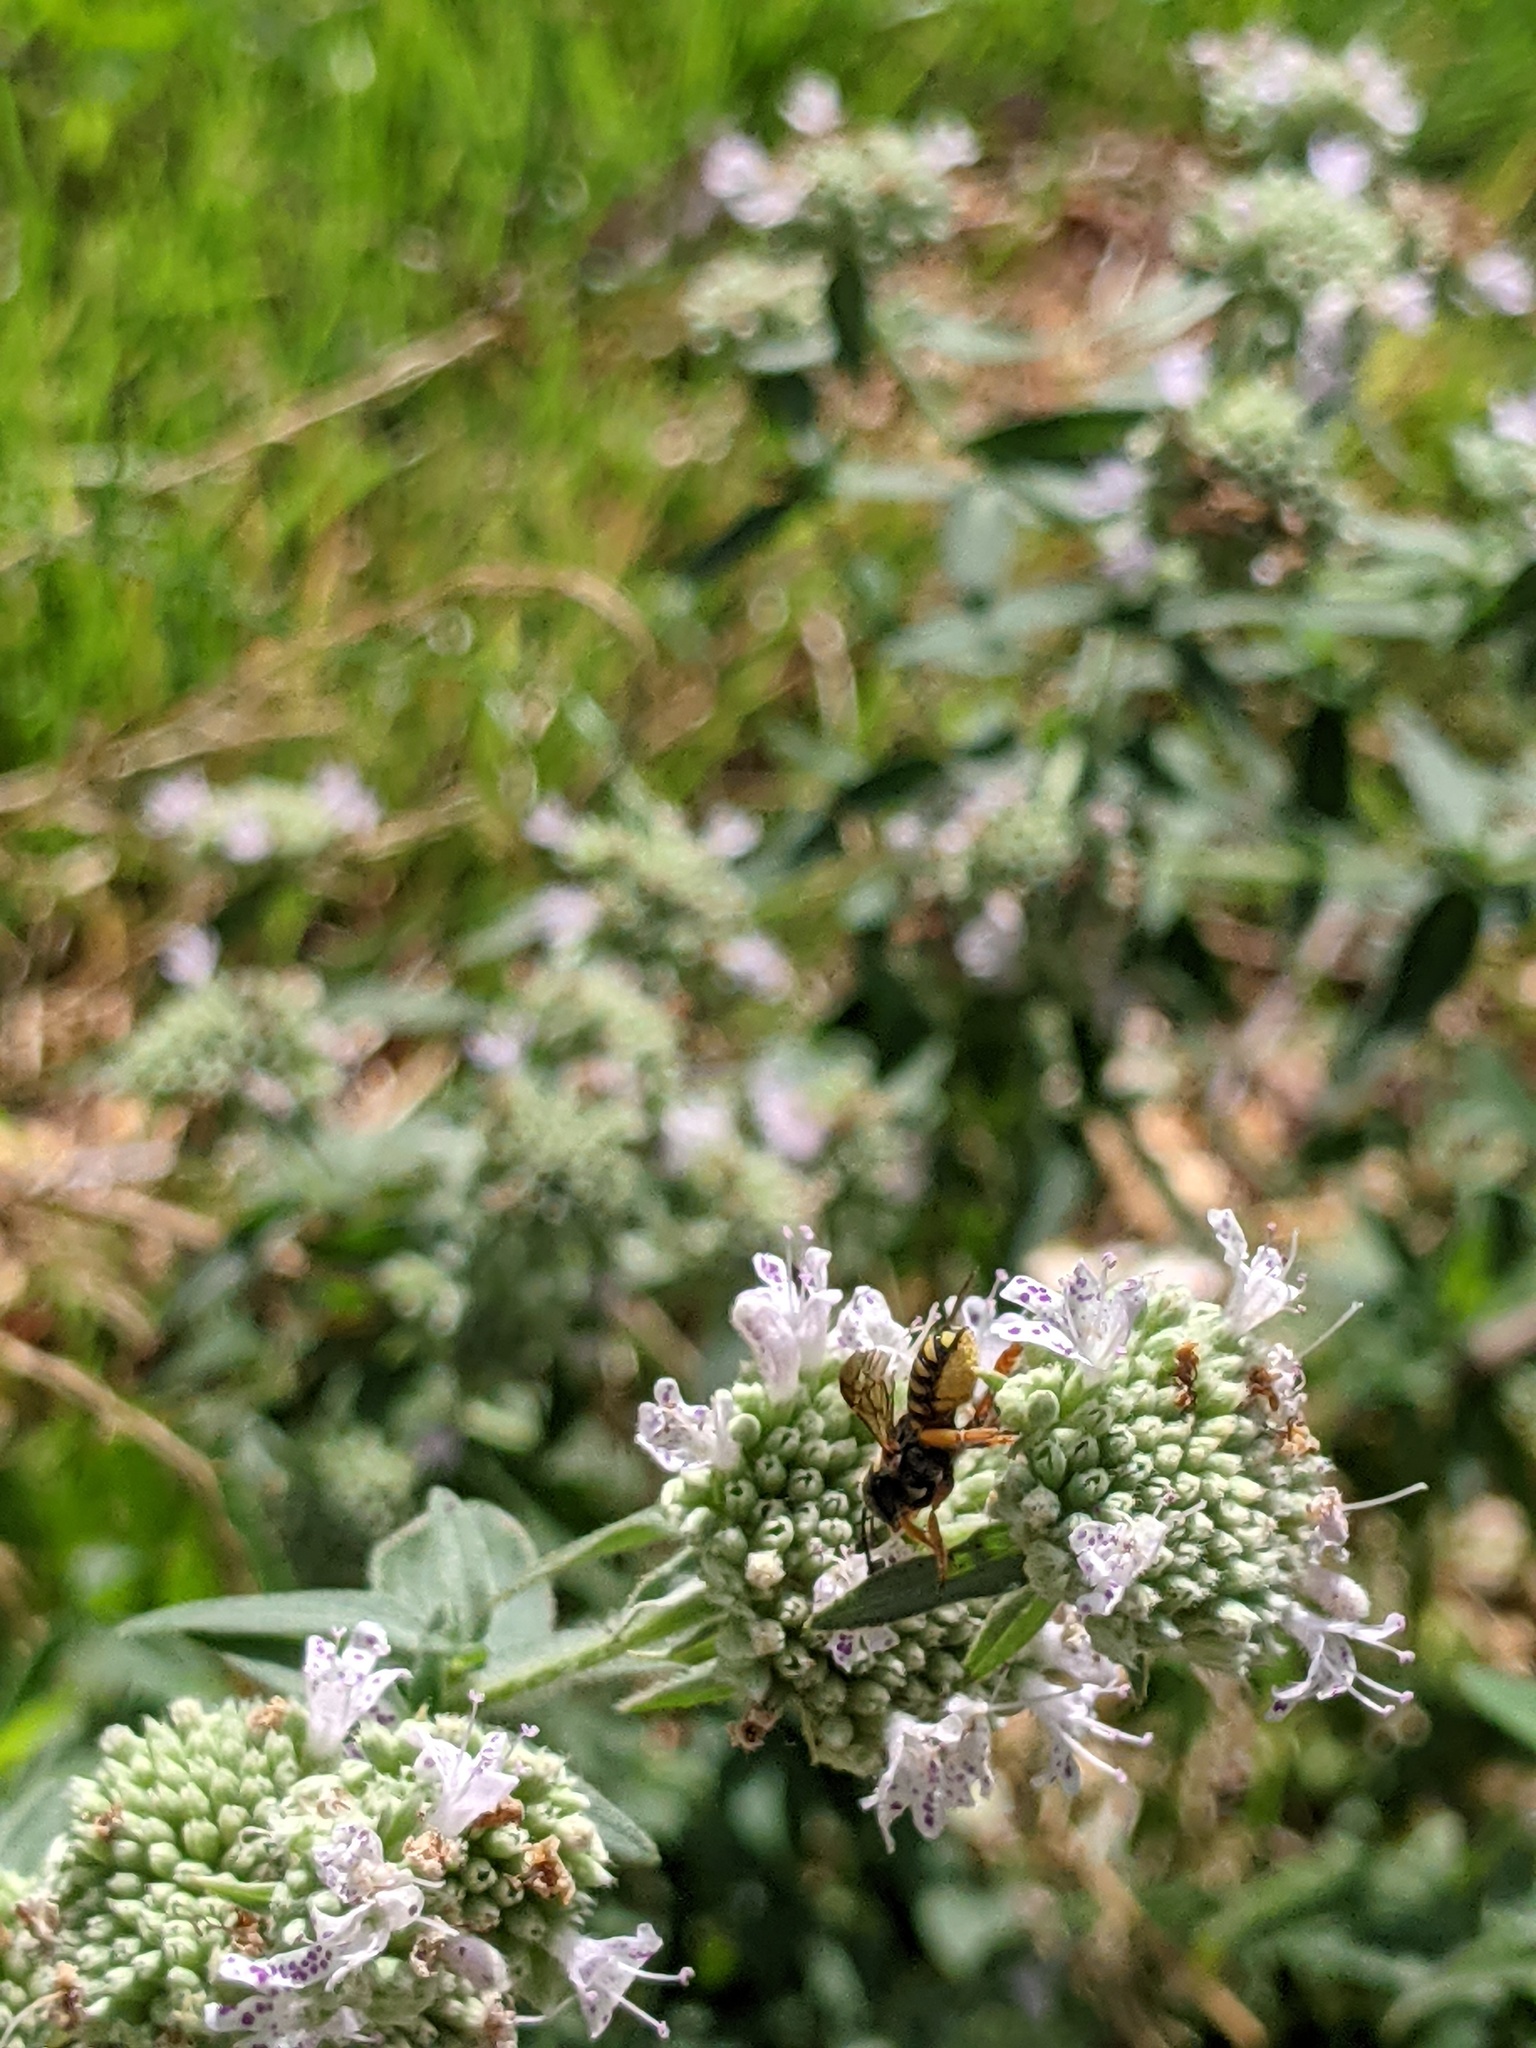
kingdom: Animalia
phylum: Arthropoda
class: Insecta
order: Hymenoptera
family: Megachilidae
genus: Anthidium
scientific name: Anthidium oblongatum
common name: Oblong wool carder bee
